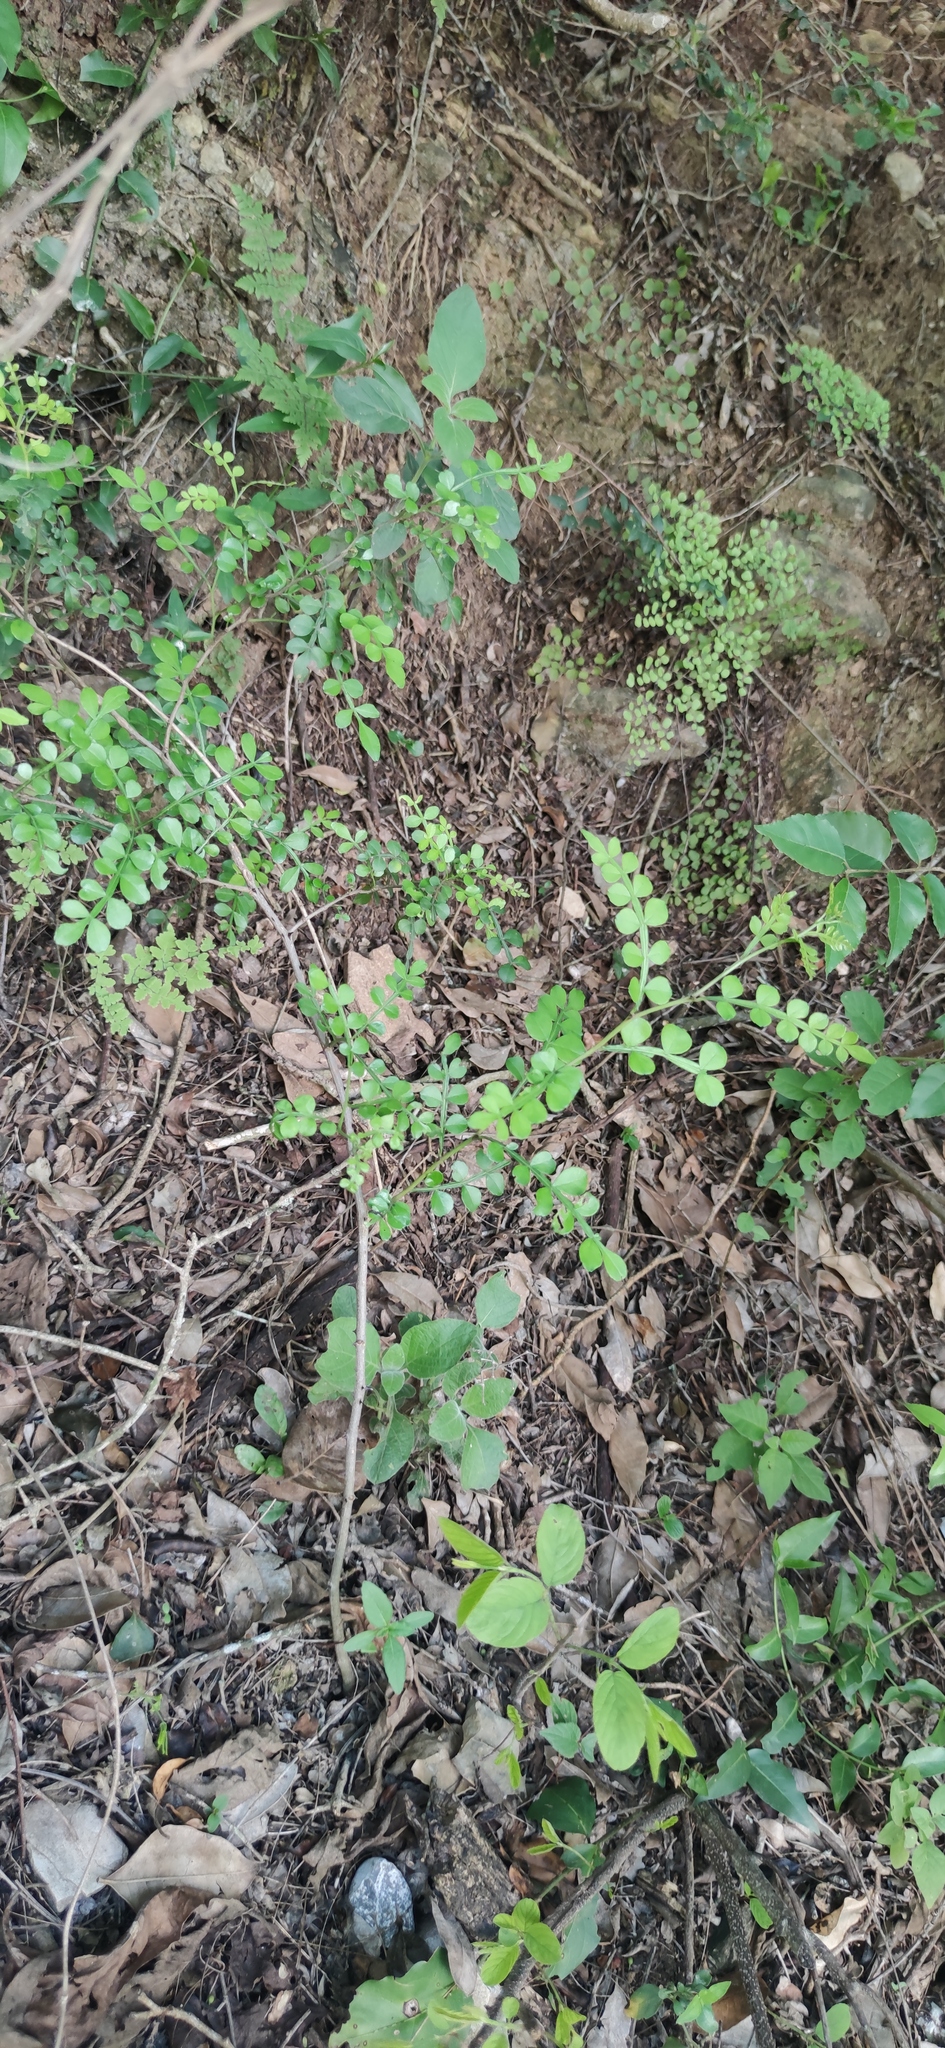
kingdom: Plantae
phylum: Tracheophyta
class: Magnoliopsida
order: Sapindales
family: Rutaceae
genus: Zanthoxylum
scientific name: Zanthoxylum fagara
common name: Lime prickly-ash
